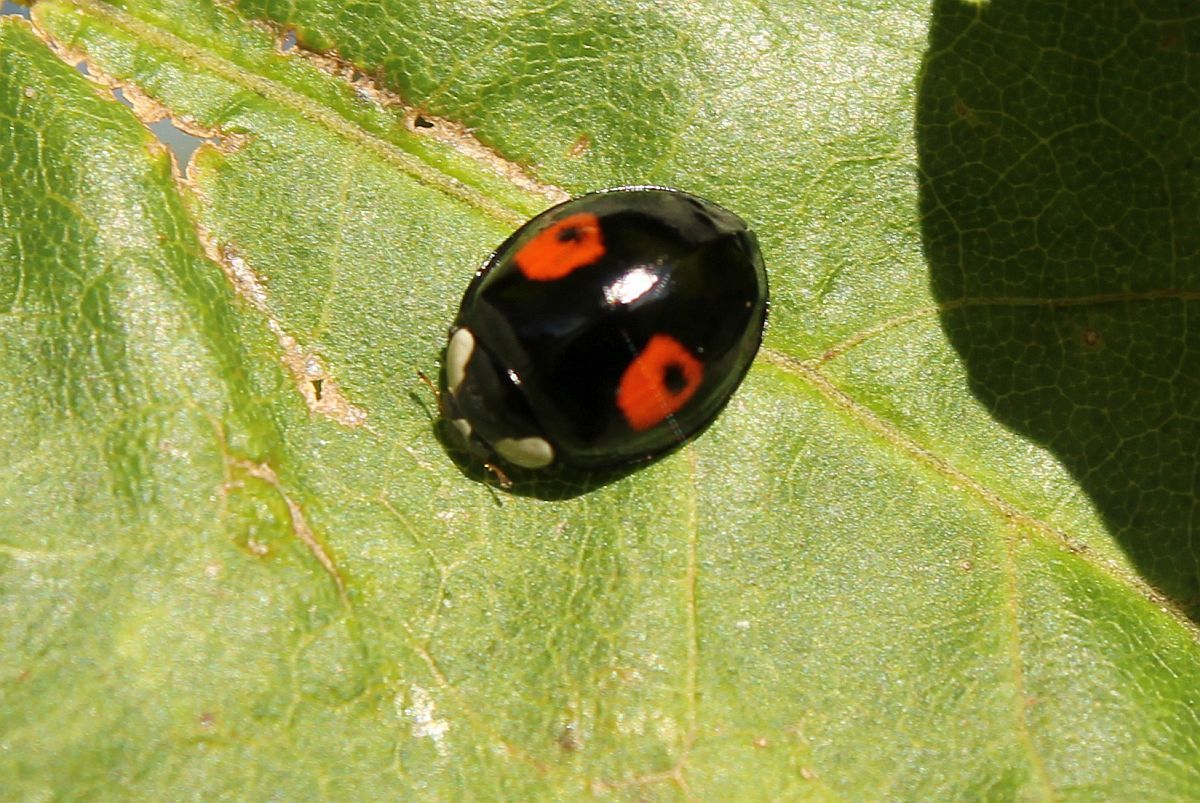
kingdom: Animalia
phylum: Arthropoda
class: Insecta
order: Coleoptera
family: Coccinellidae
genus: Harmonia
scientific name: Harmonia axyridis
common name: Harlequin ladybird
